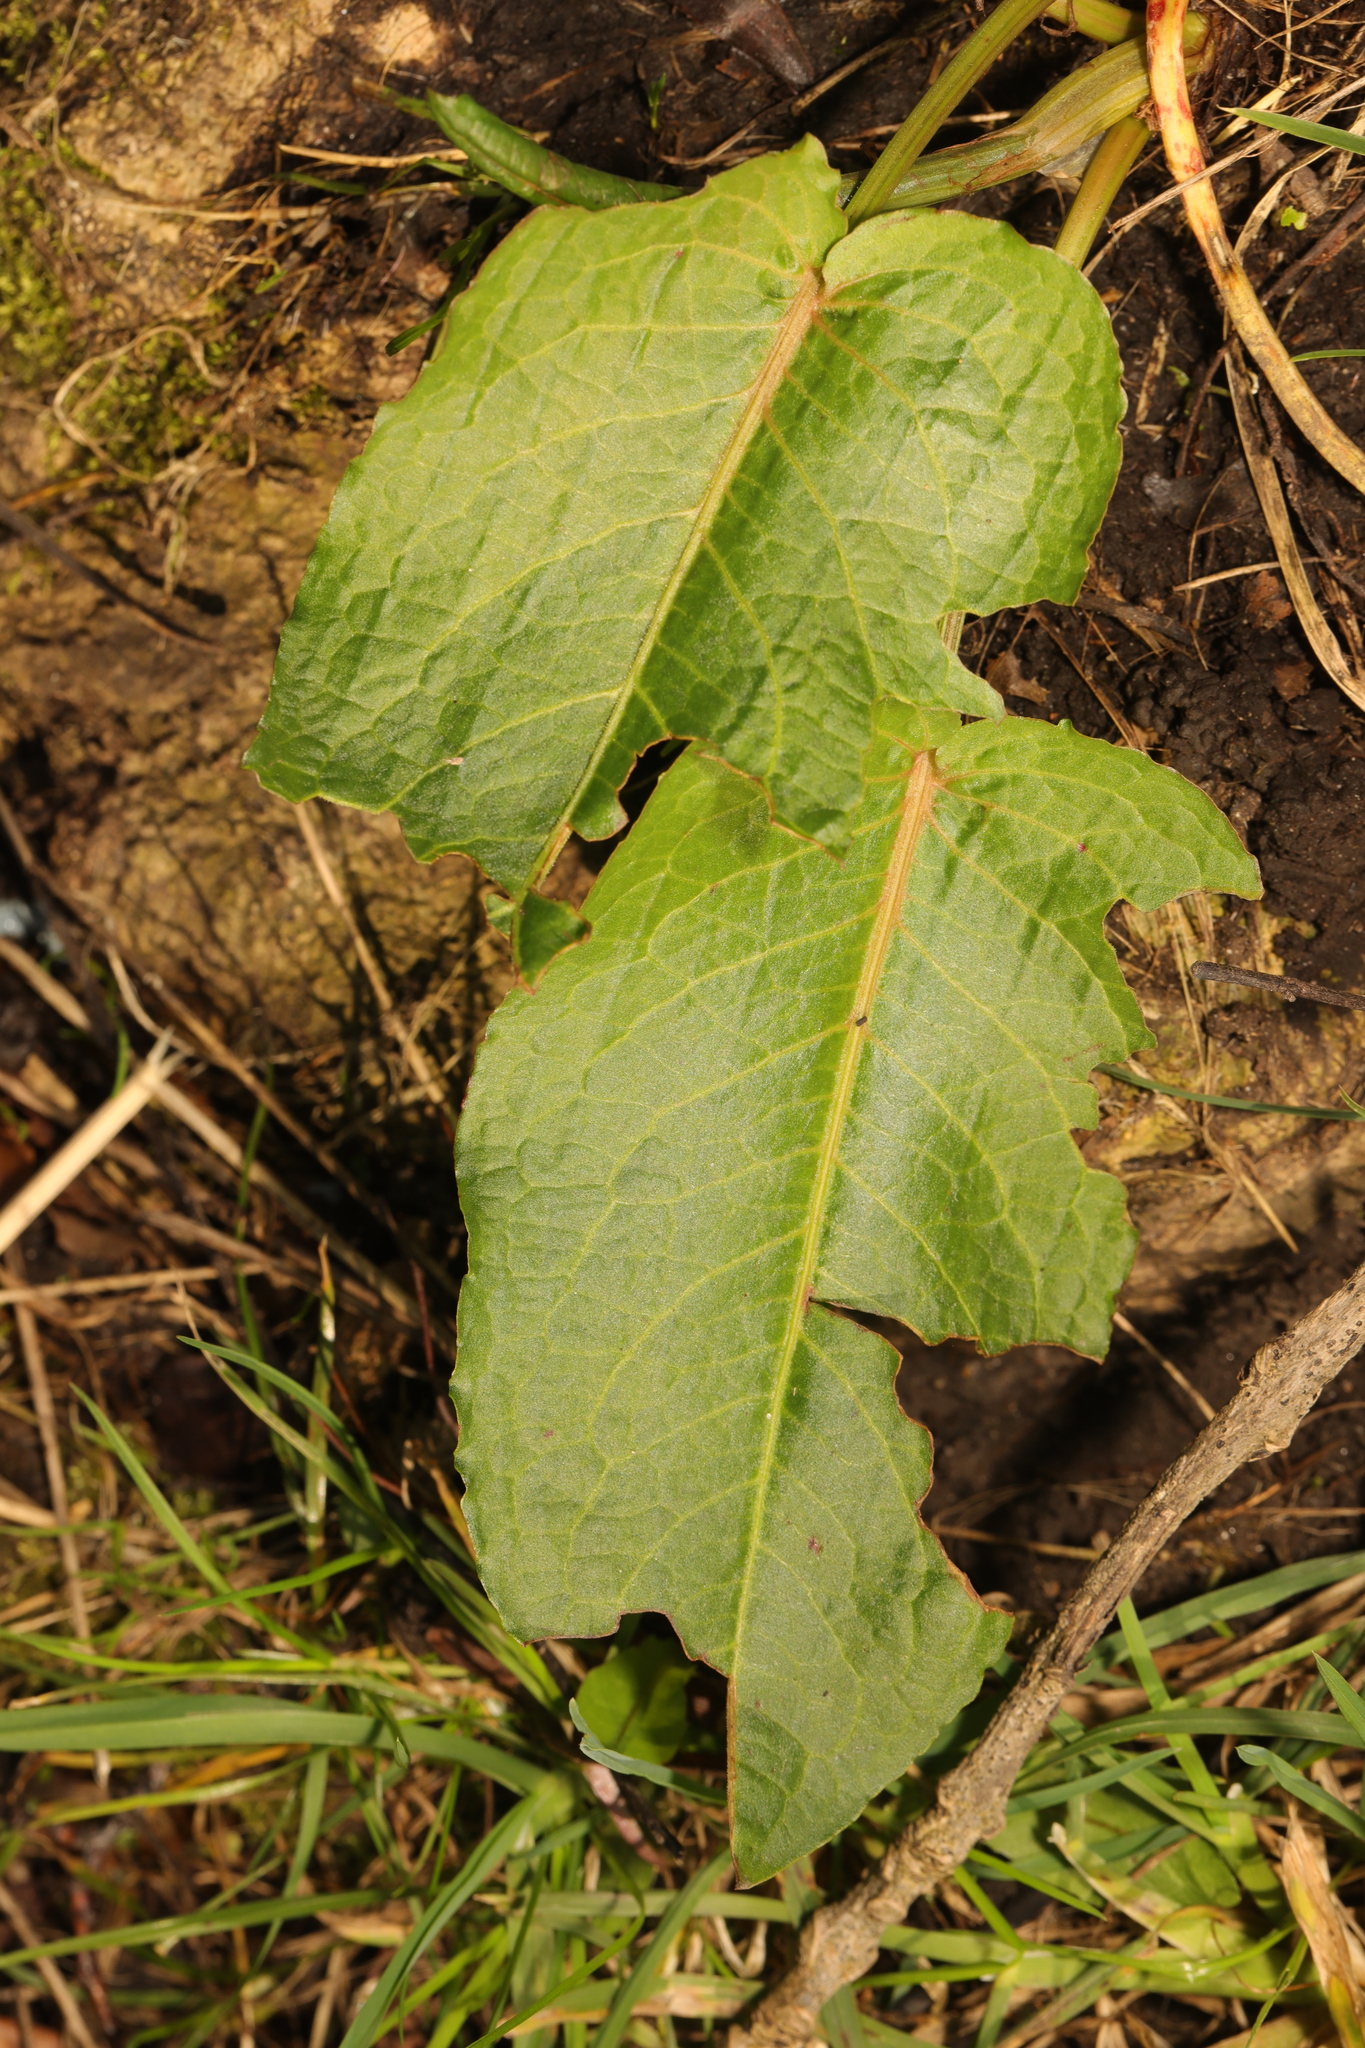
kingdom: Plantae
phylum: Tracheophyta
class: Magnoliopsida
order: Caryophyllales
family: Polygonaceae
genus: Rumex
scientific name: Rumex obtusifolius
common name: Bitter dock
